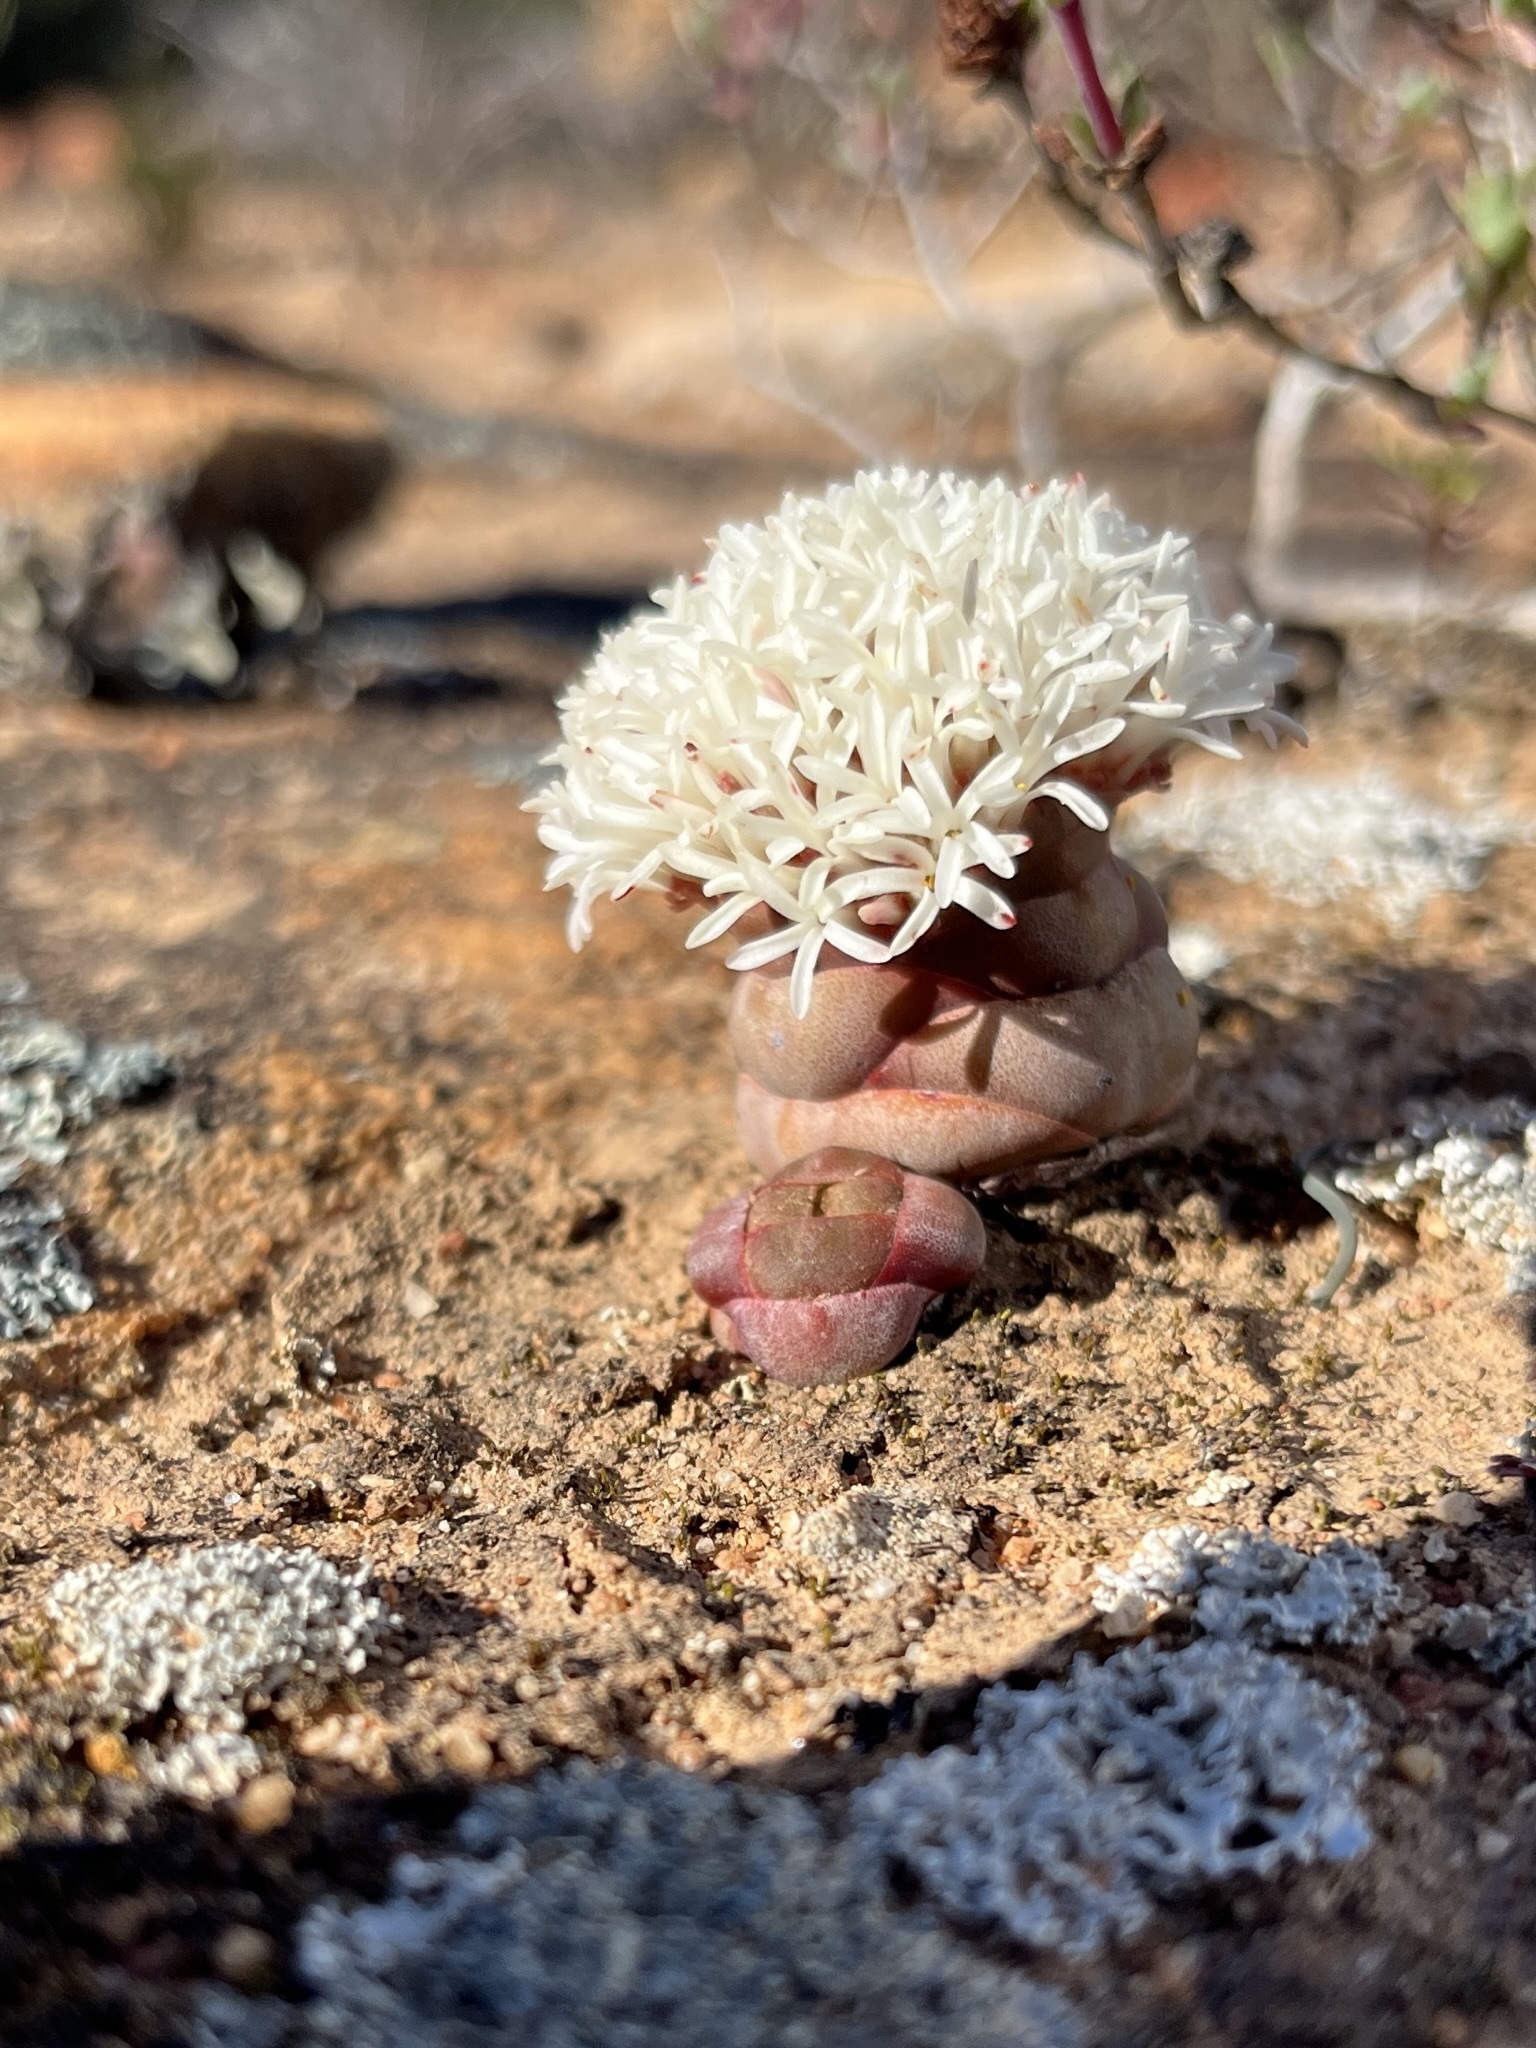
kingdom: Plantae
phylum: Tracheophyta
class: Magnoliopsida
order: Saxifragales
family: Crassulaceae
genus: Crassula
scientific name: Crassula columnaris
